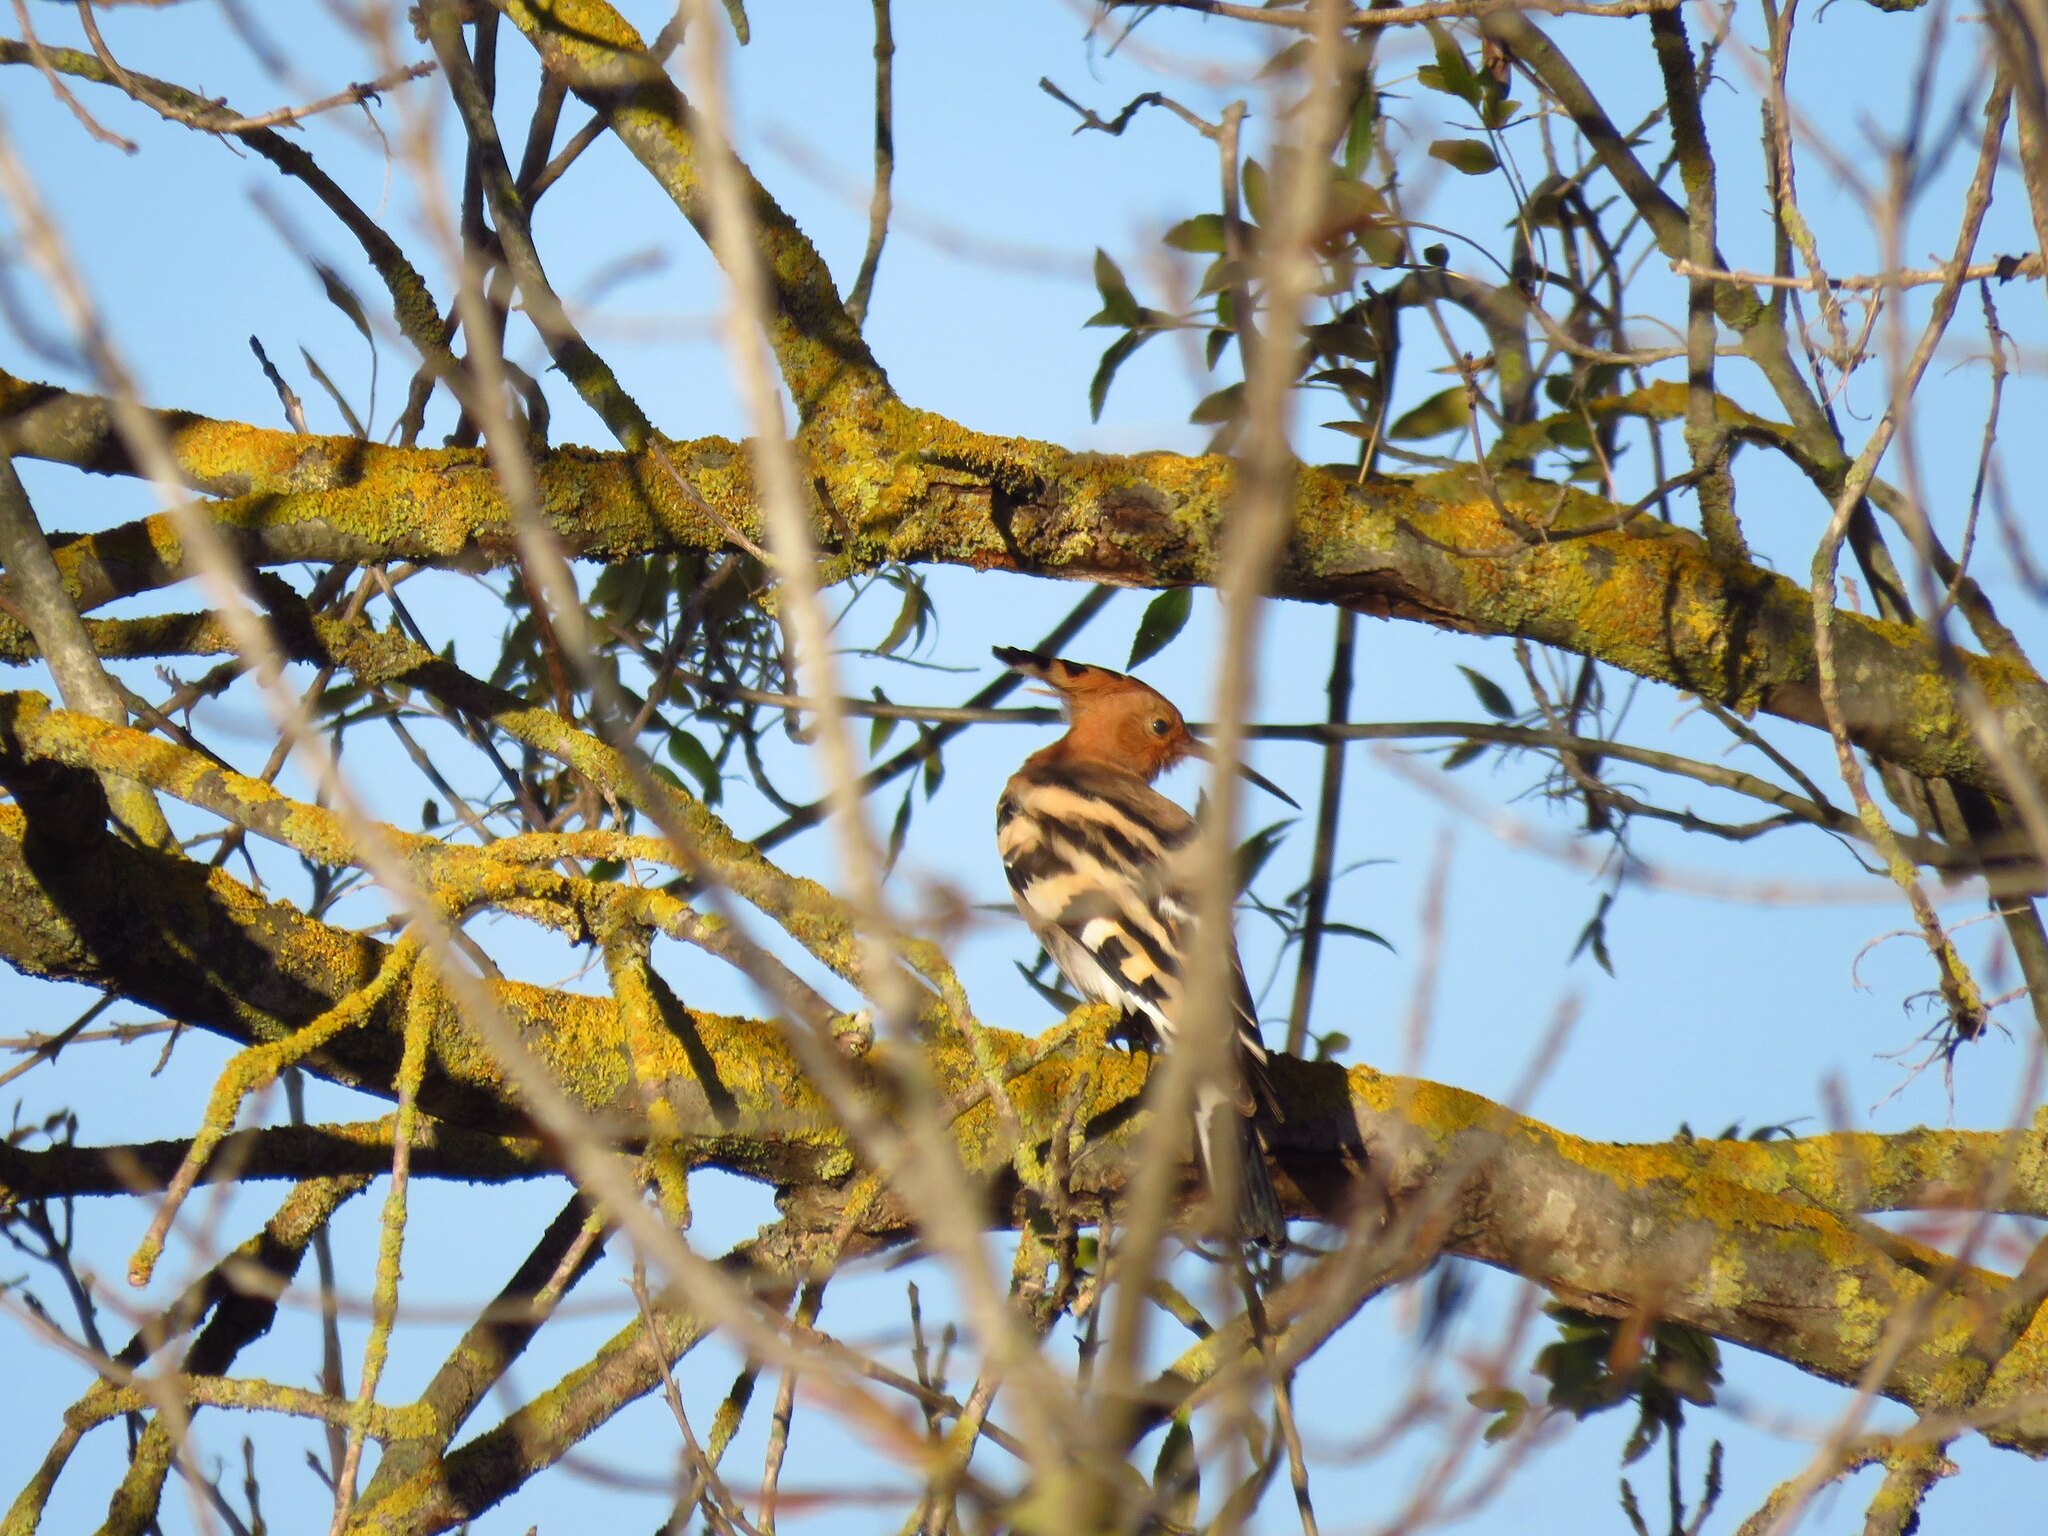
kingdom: Animalia
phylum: Chordata
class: Aves
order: Bucerotiformes
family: Upupidae
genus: Upupa
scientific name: Upupa epops
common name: Eurasian hoopoe
